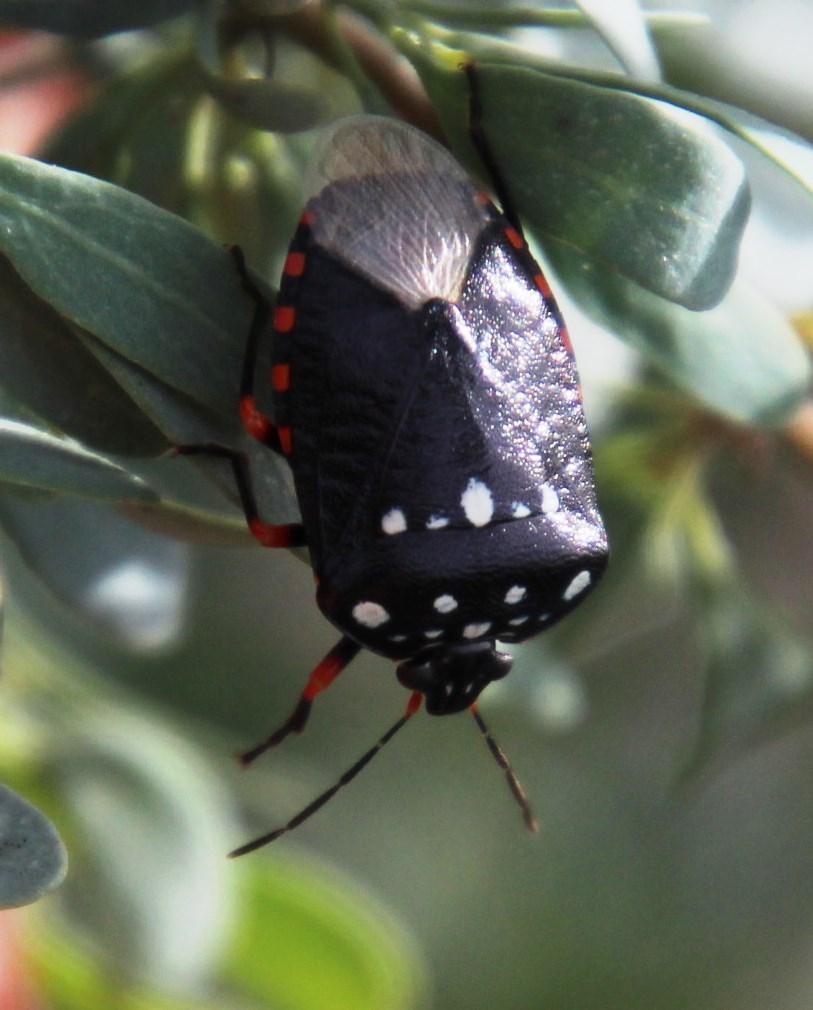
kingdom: Animalia
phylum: Arthropoda
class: Insecta
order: Hemiptera
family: Pentatomidae
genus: Antestia
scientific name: Antestia
